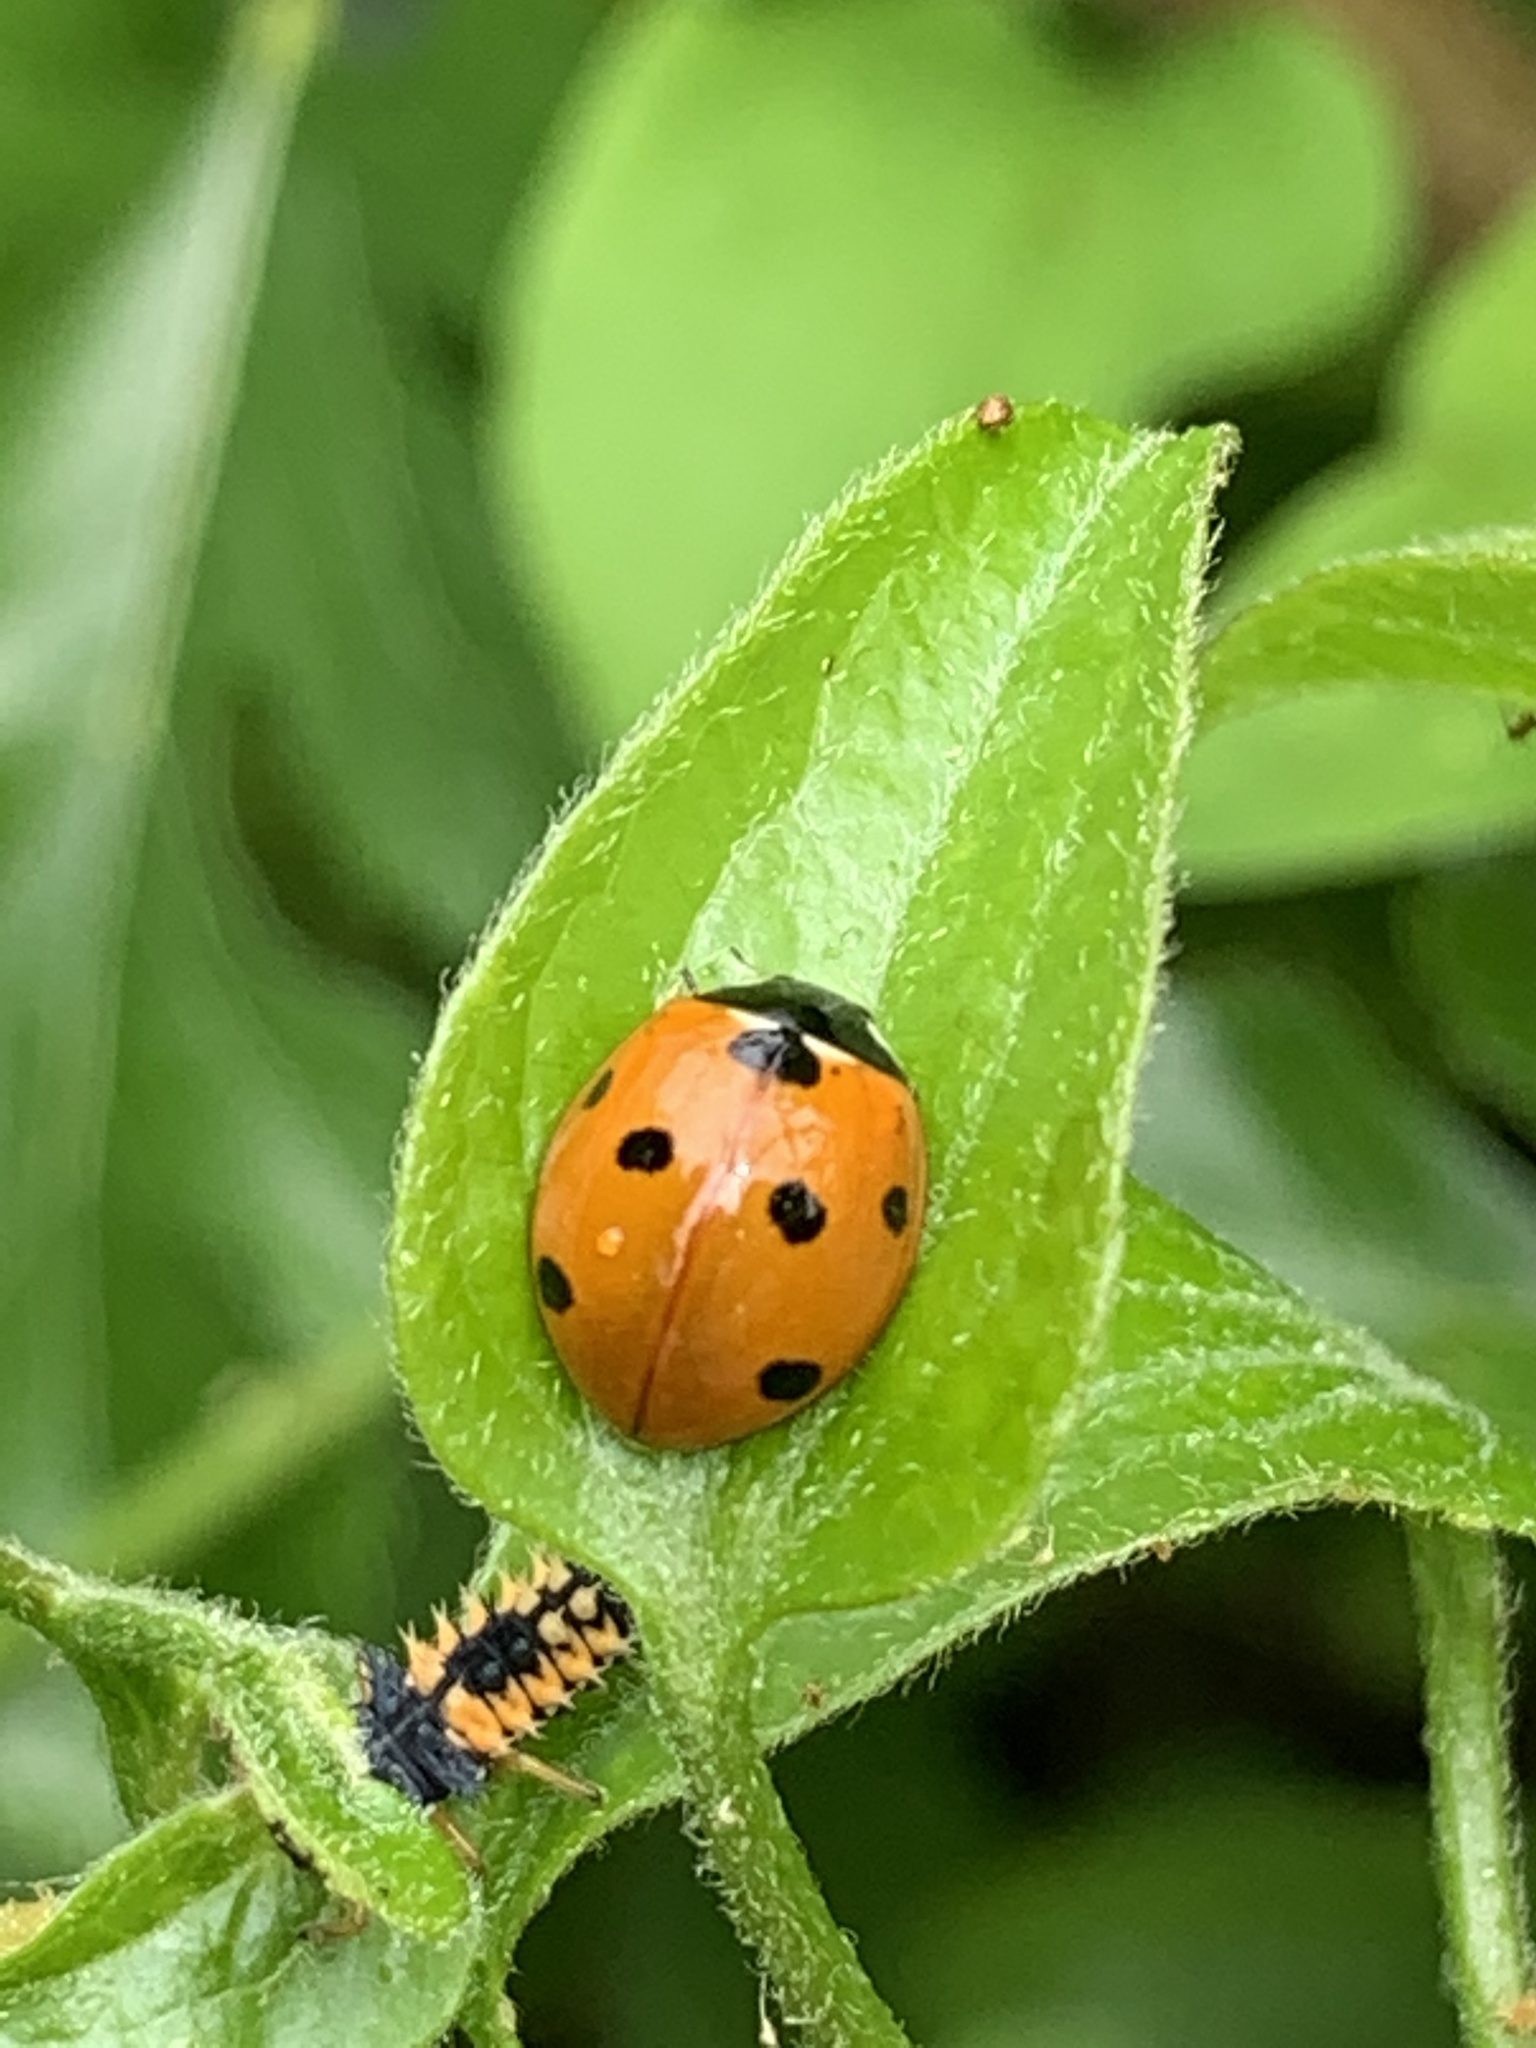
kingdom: Animalia
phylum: Arthropoda
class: Insecta
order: Coleoptera
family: Coccinellidae
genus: Coccinella
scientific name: Coccinella septempunctata
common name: Sevenspotted lady beetle
